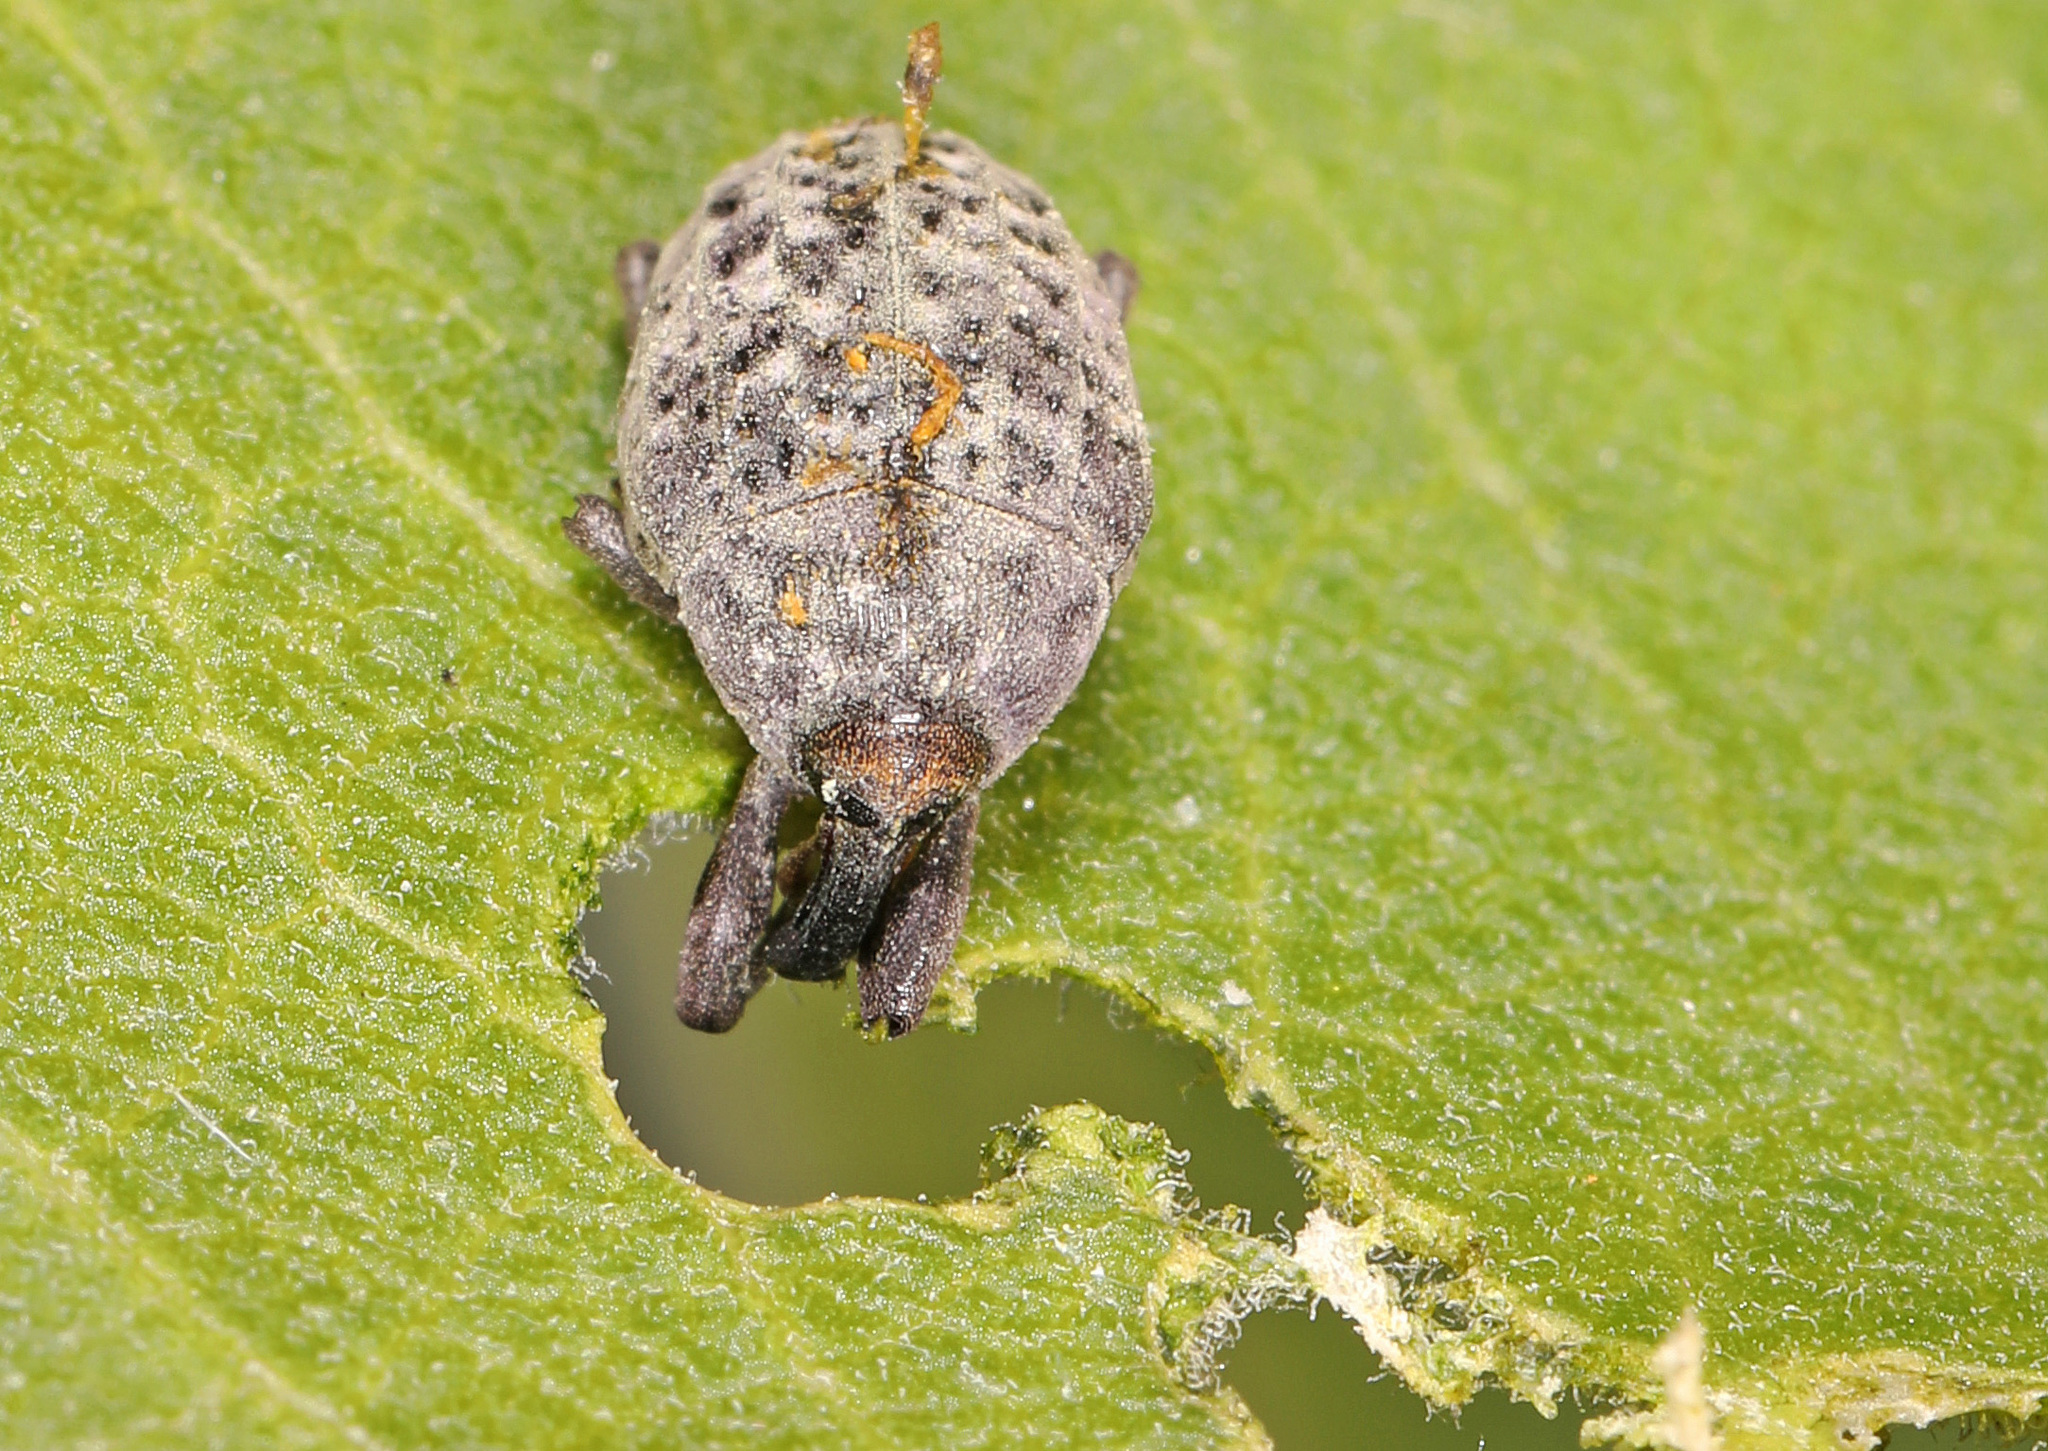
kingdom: Animalia
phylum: Arthropoda
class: Insecta
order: Coleoptera
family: Curculionidae
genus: Rhyssomatus
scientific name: Rhyssomatus lineaticollis
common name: Milkweed stem weevil
